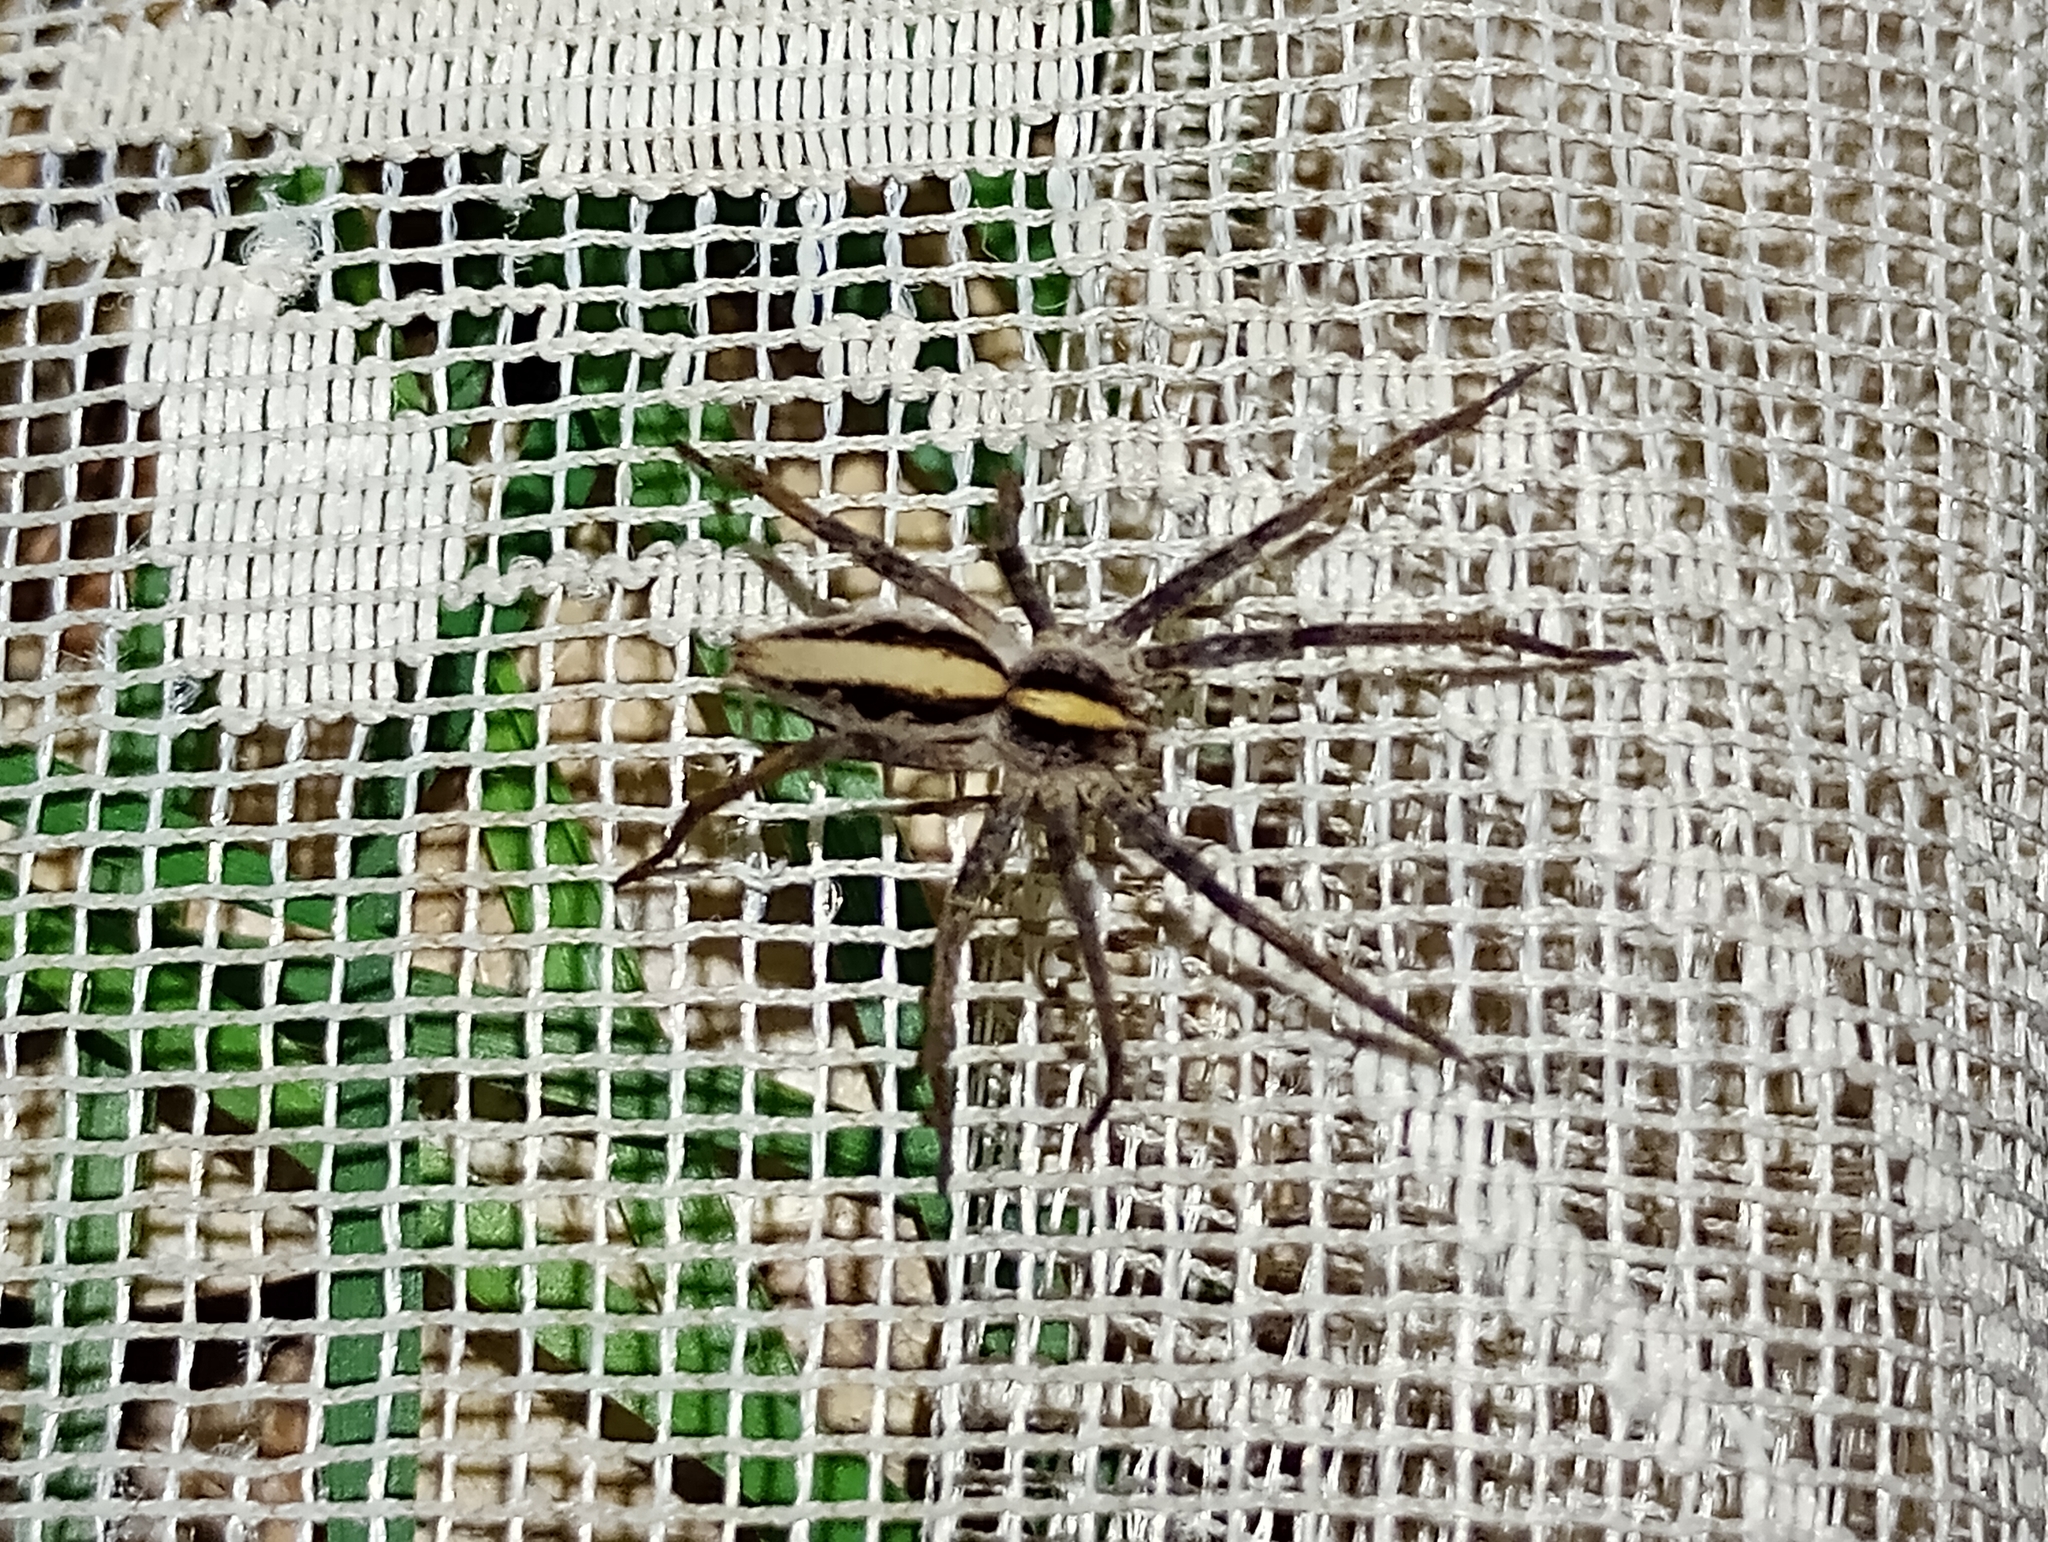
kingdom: Animalia
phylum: Arthropoda
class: Arachnida
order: Araneae
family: Pisauridae
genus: Pisaura
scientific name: Pisaura mirabilis
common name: Tent spider
